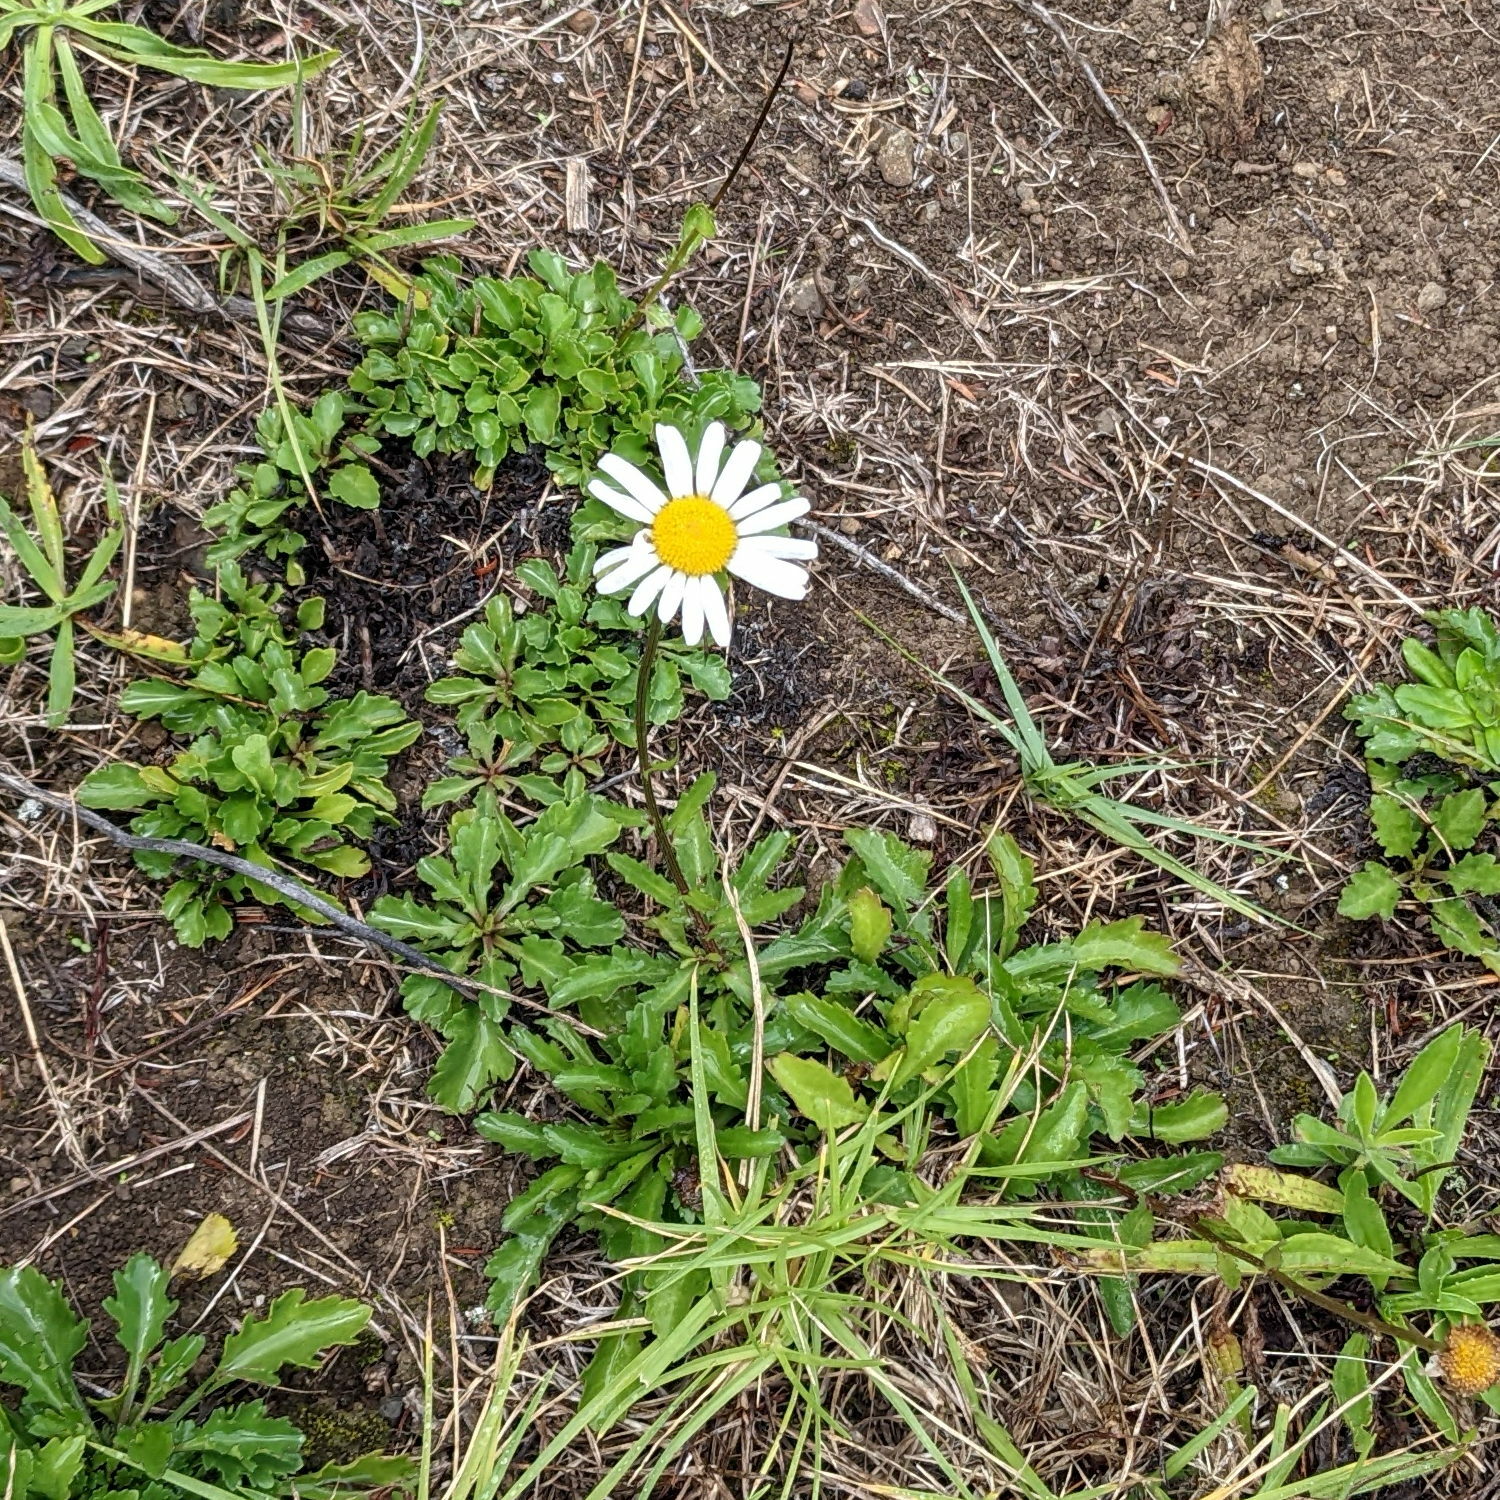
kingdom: Plantae
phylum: Tracheophyta
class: Magnoliopsida
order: Asterales
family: Asteraceae
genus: Leucanthemum
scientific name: Leucanthemum vulgare
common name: Oxeye daisy
